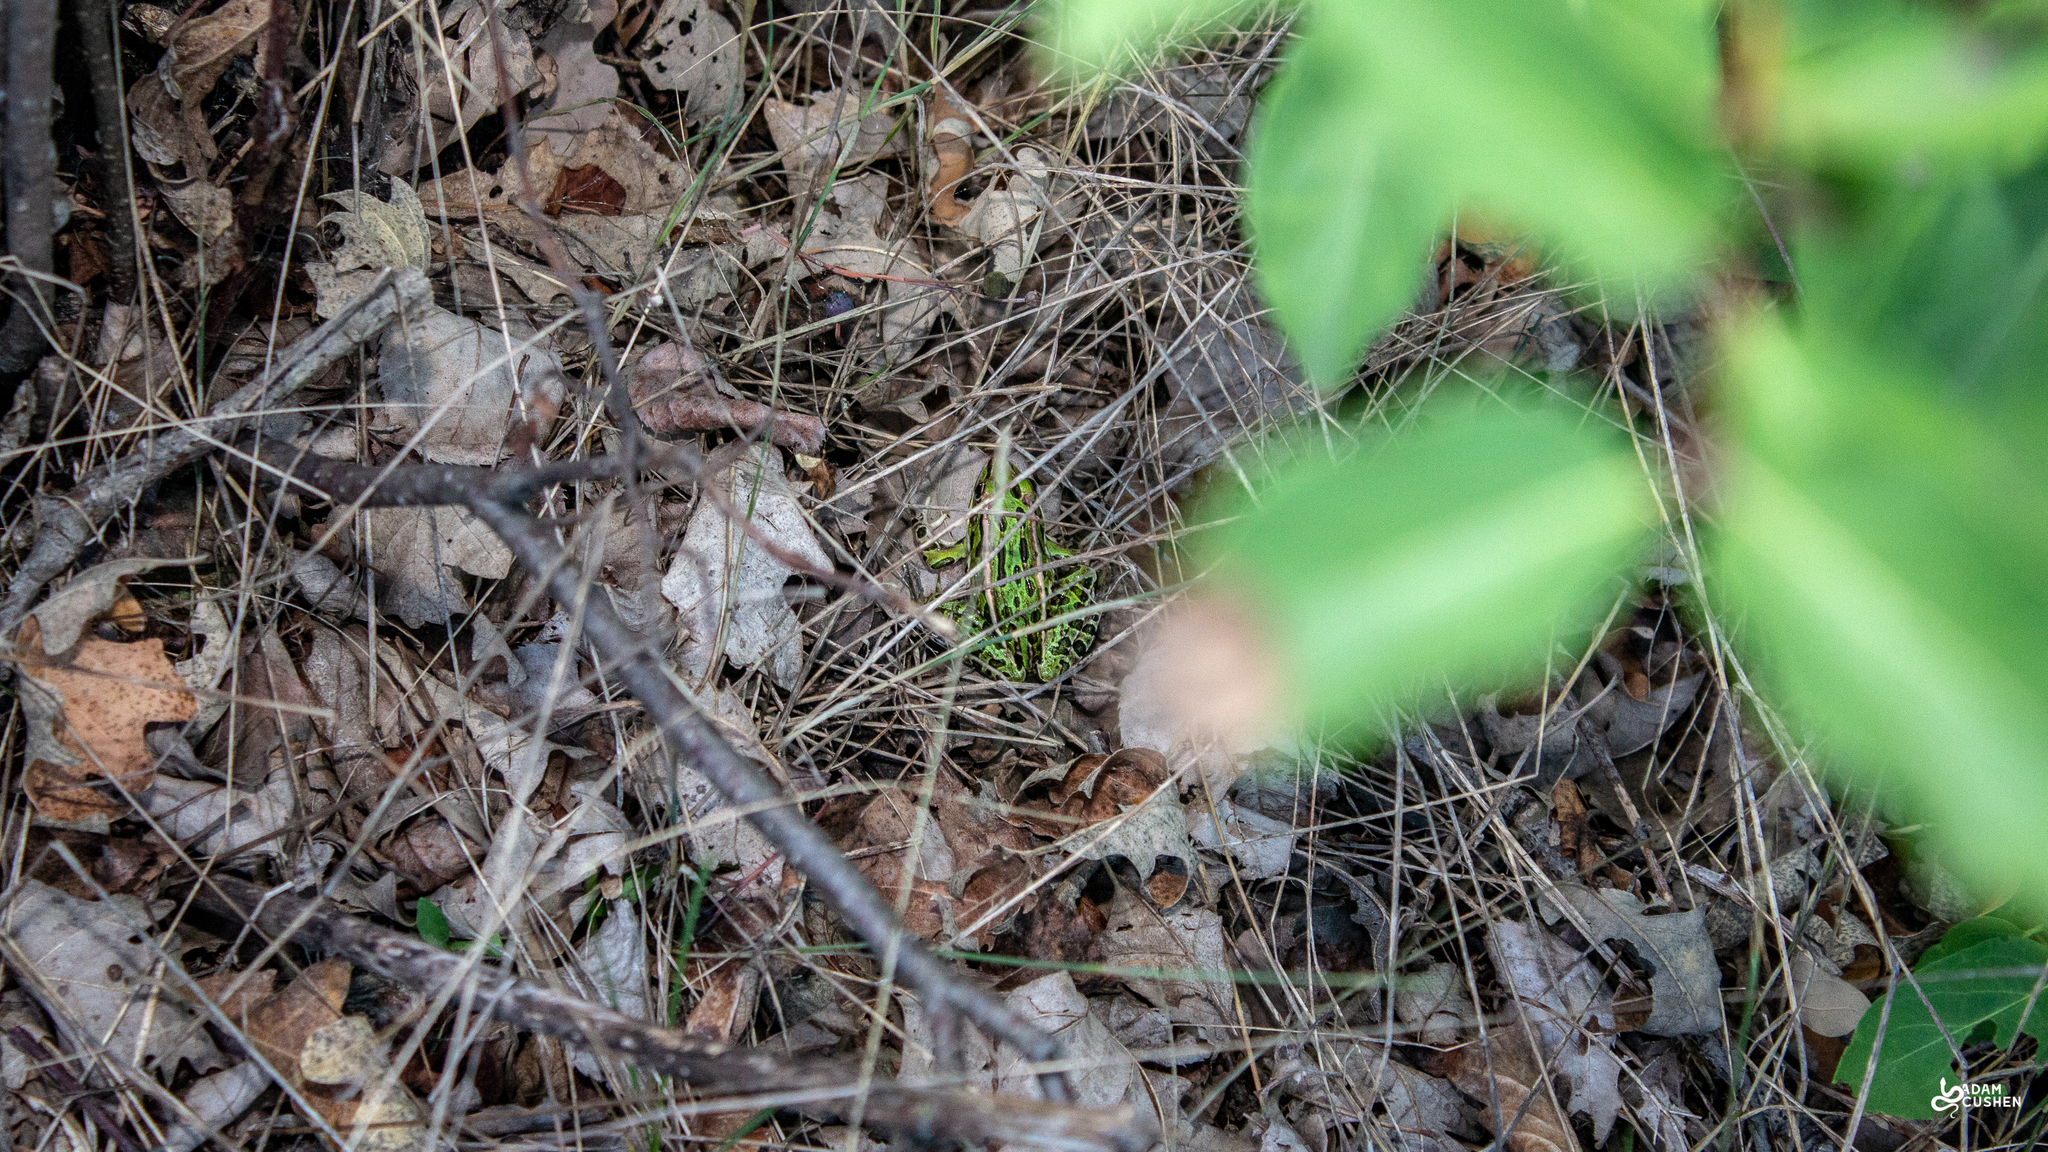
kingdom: Animalia
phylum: Chordata
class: Amphibia
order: Anura
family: Ranidae
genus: Lithobates
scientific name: Lithobates pipiens
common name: Northern leopard frog
